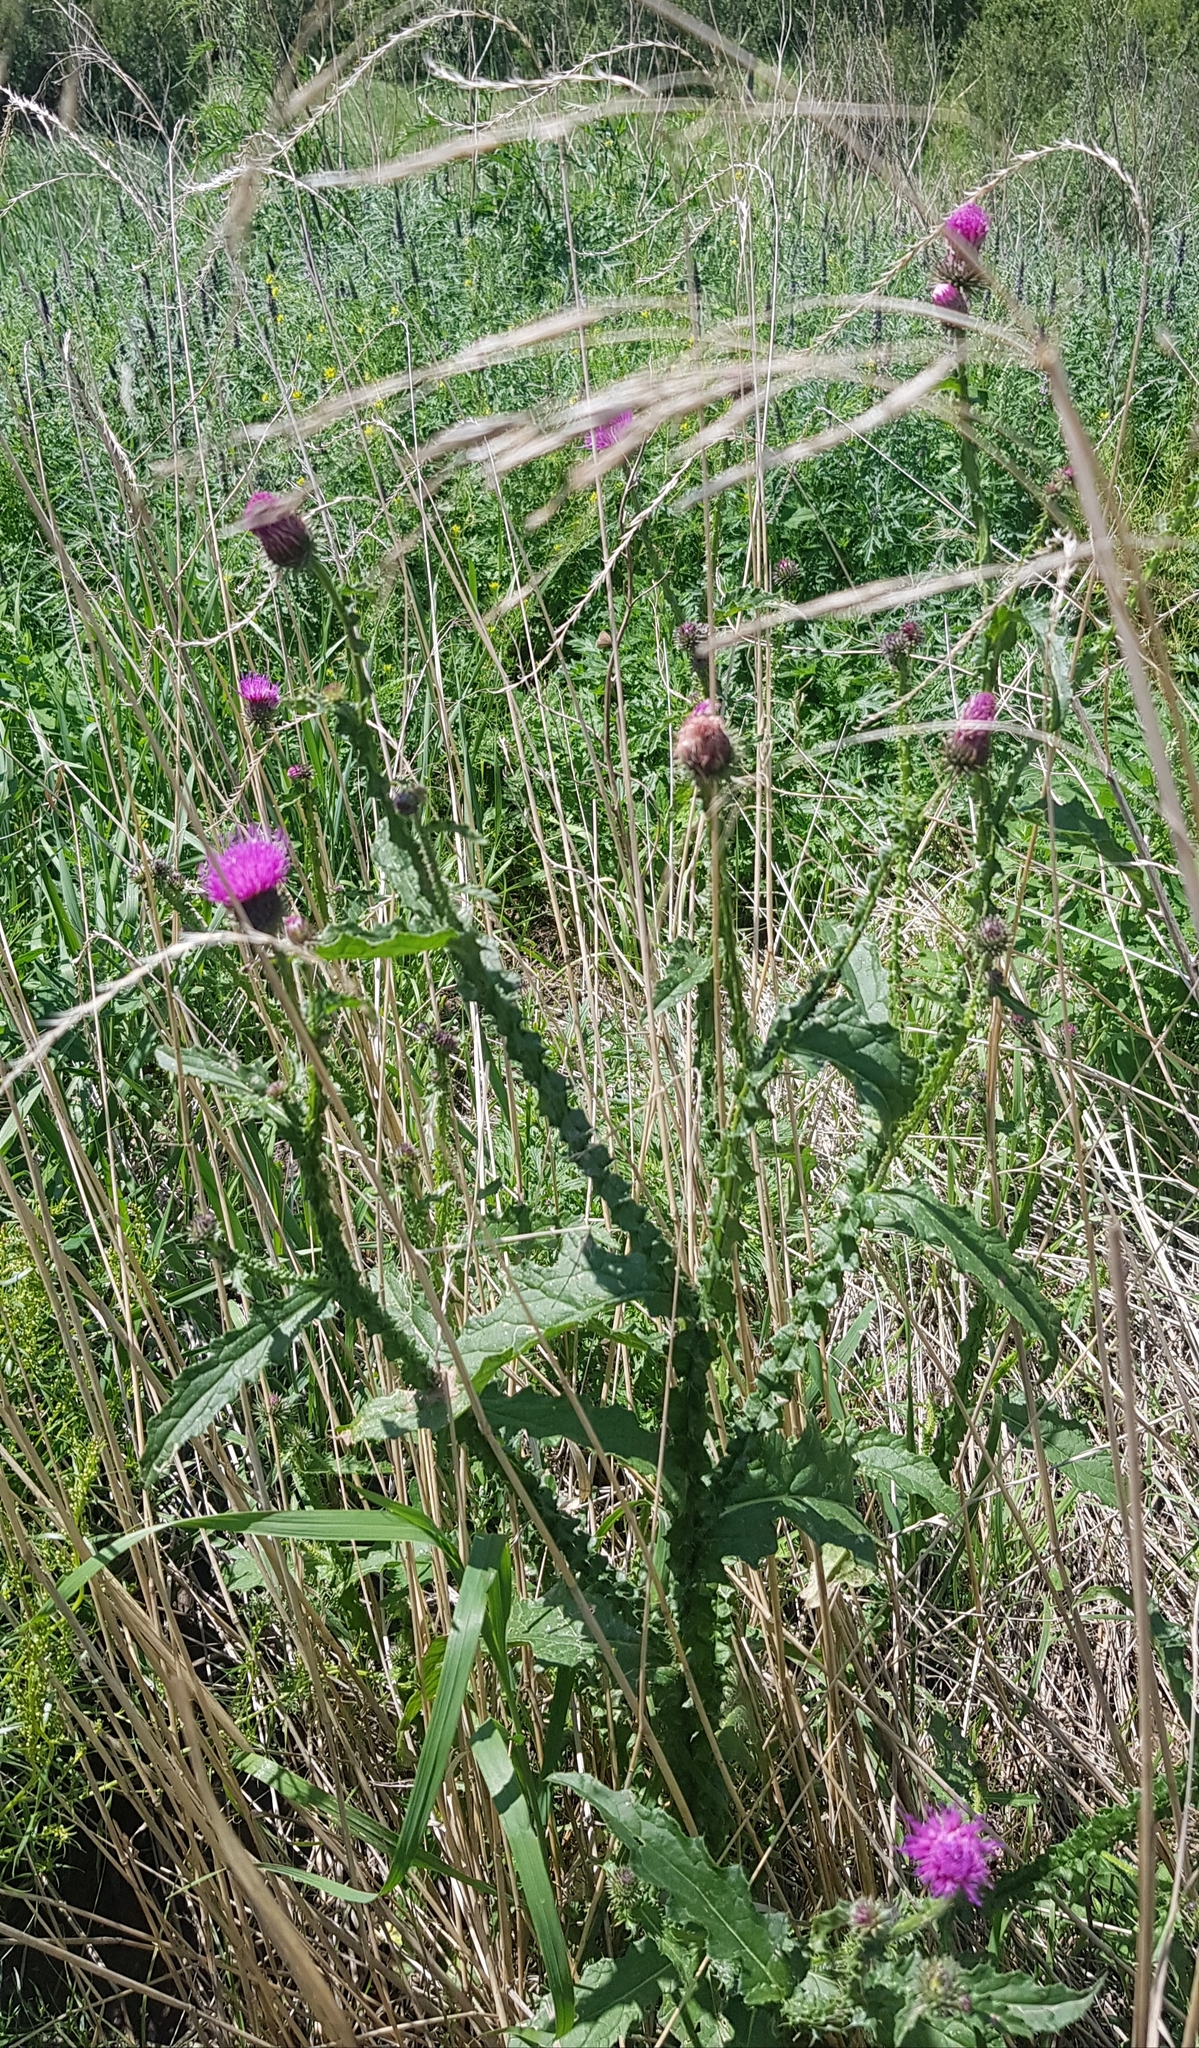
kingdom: Plantae
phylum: Tracheophyta
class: Magnoliopsida
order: Asterales
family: Asteraceae
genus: Carduus
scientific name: Carduus crispus
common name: Welted thistle
